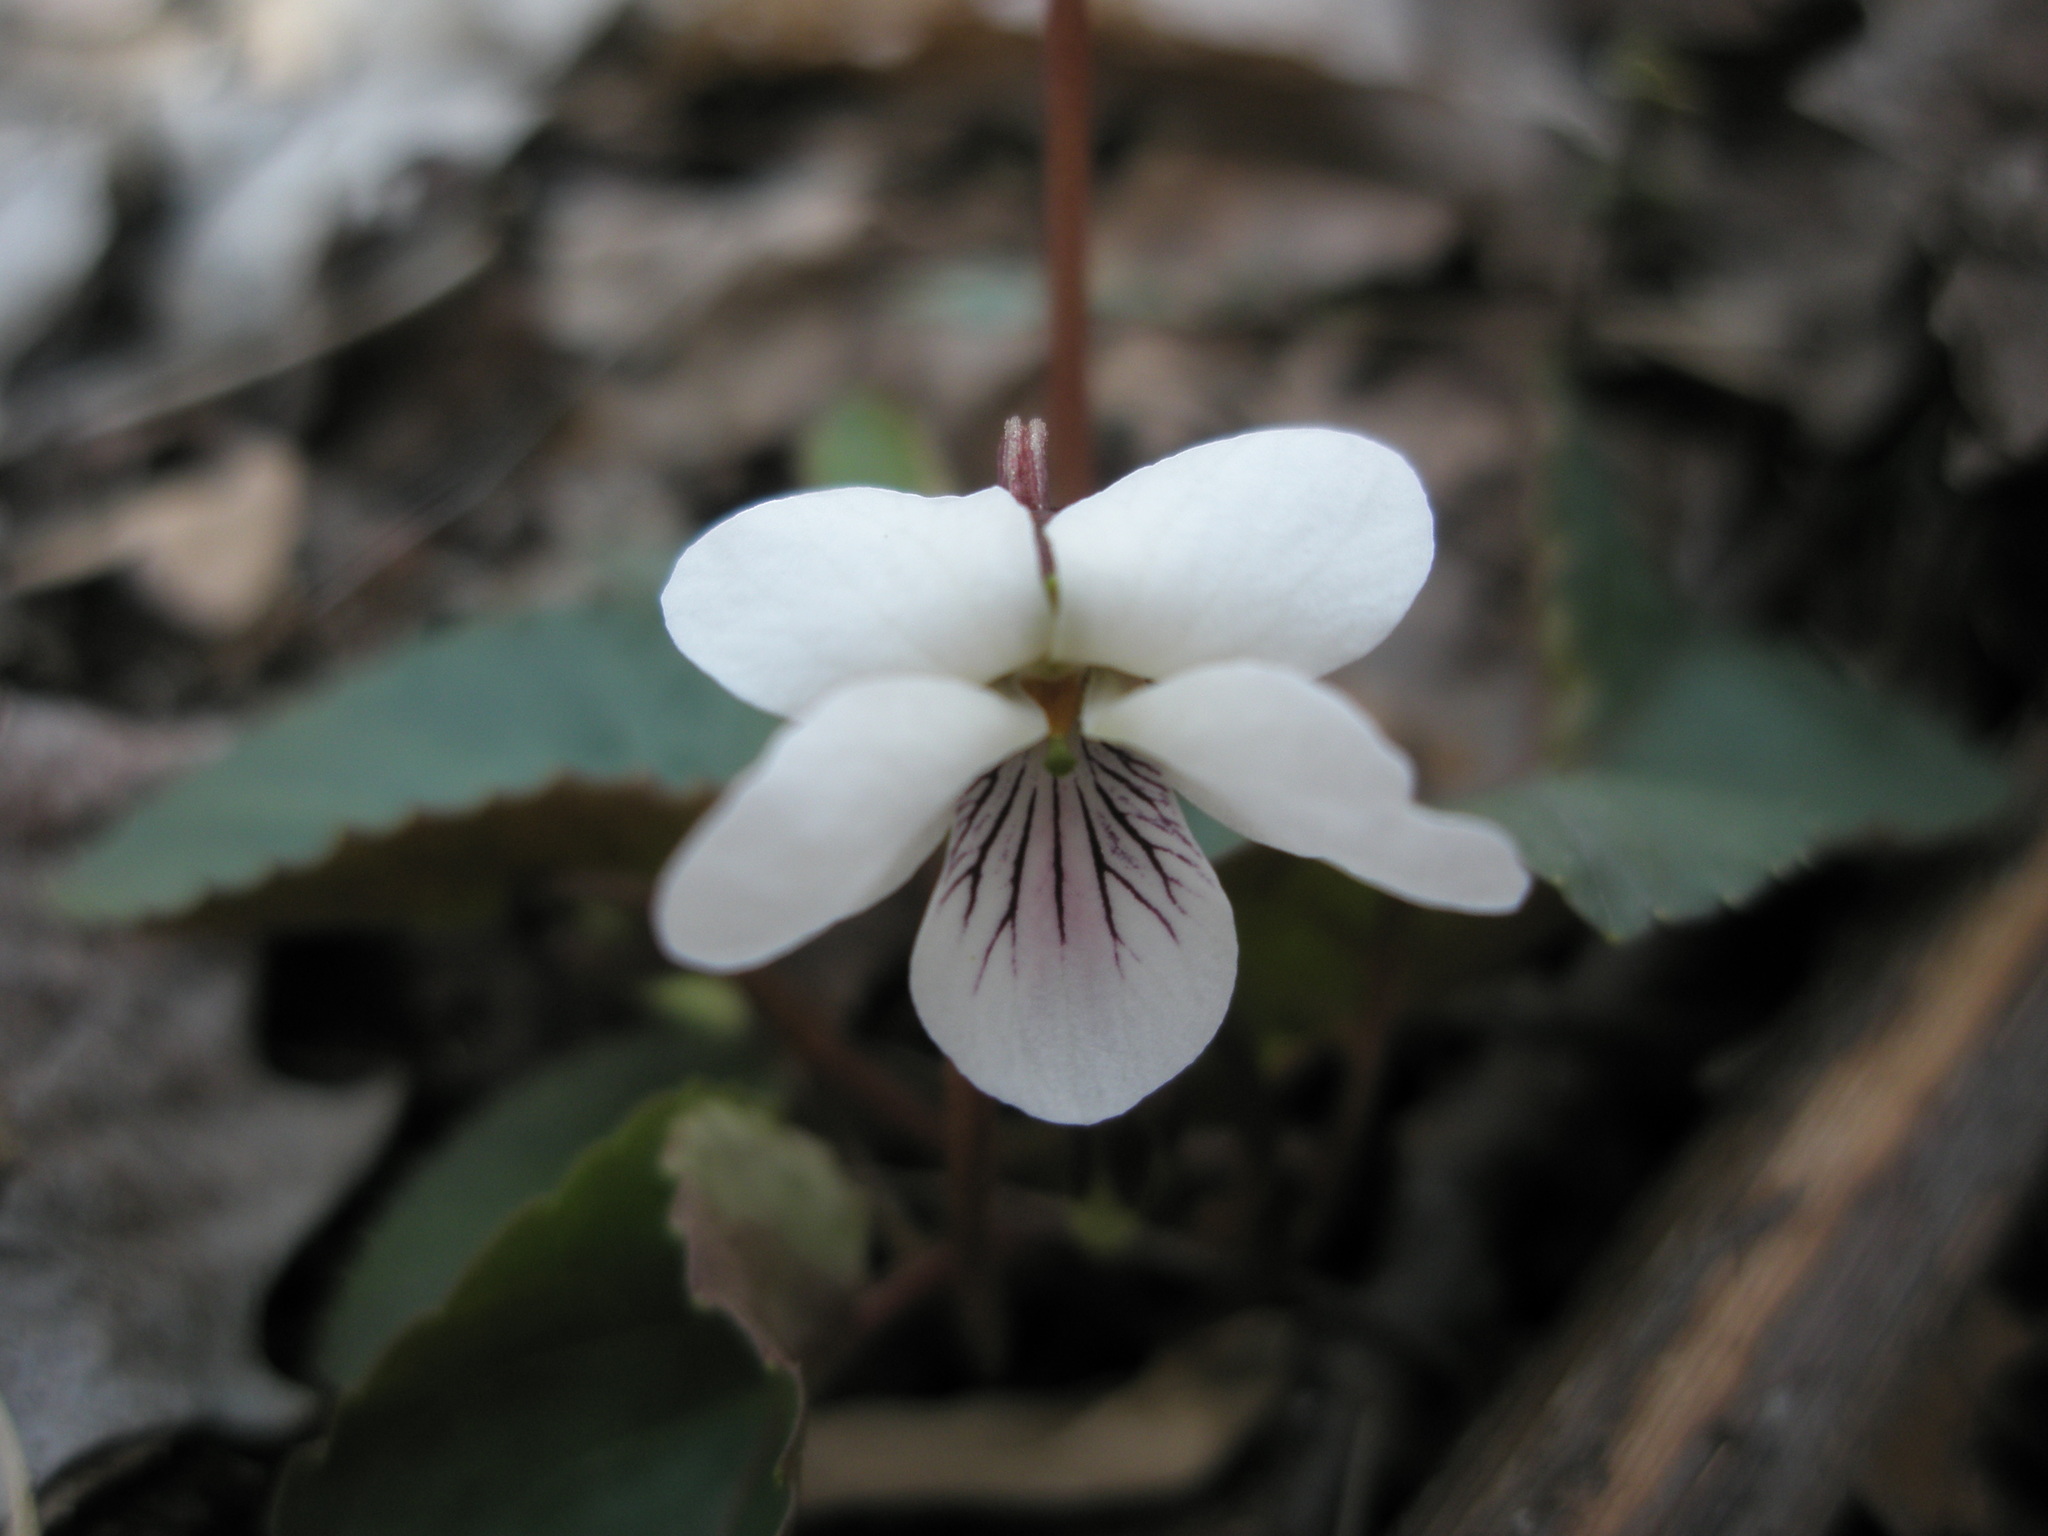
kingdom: Plantae
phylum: Tracheophyta
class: Magnoliopsida
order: Malpighiales
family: Violaceae
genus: Viola
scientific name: Viola blanda
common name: Sweet white violet
